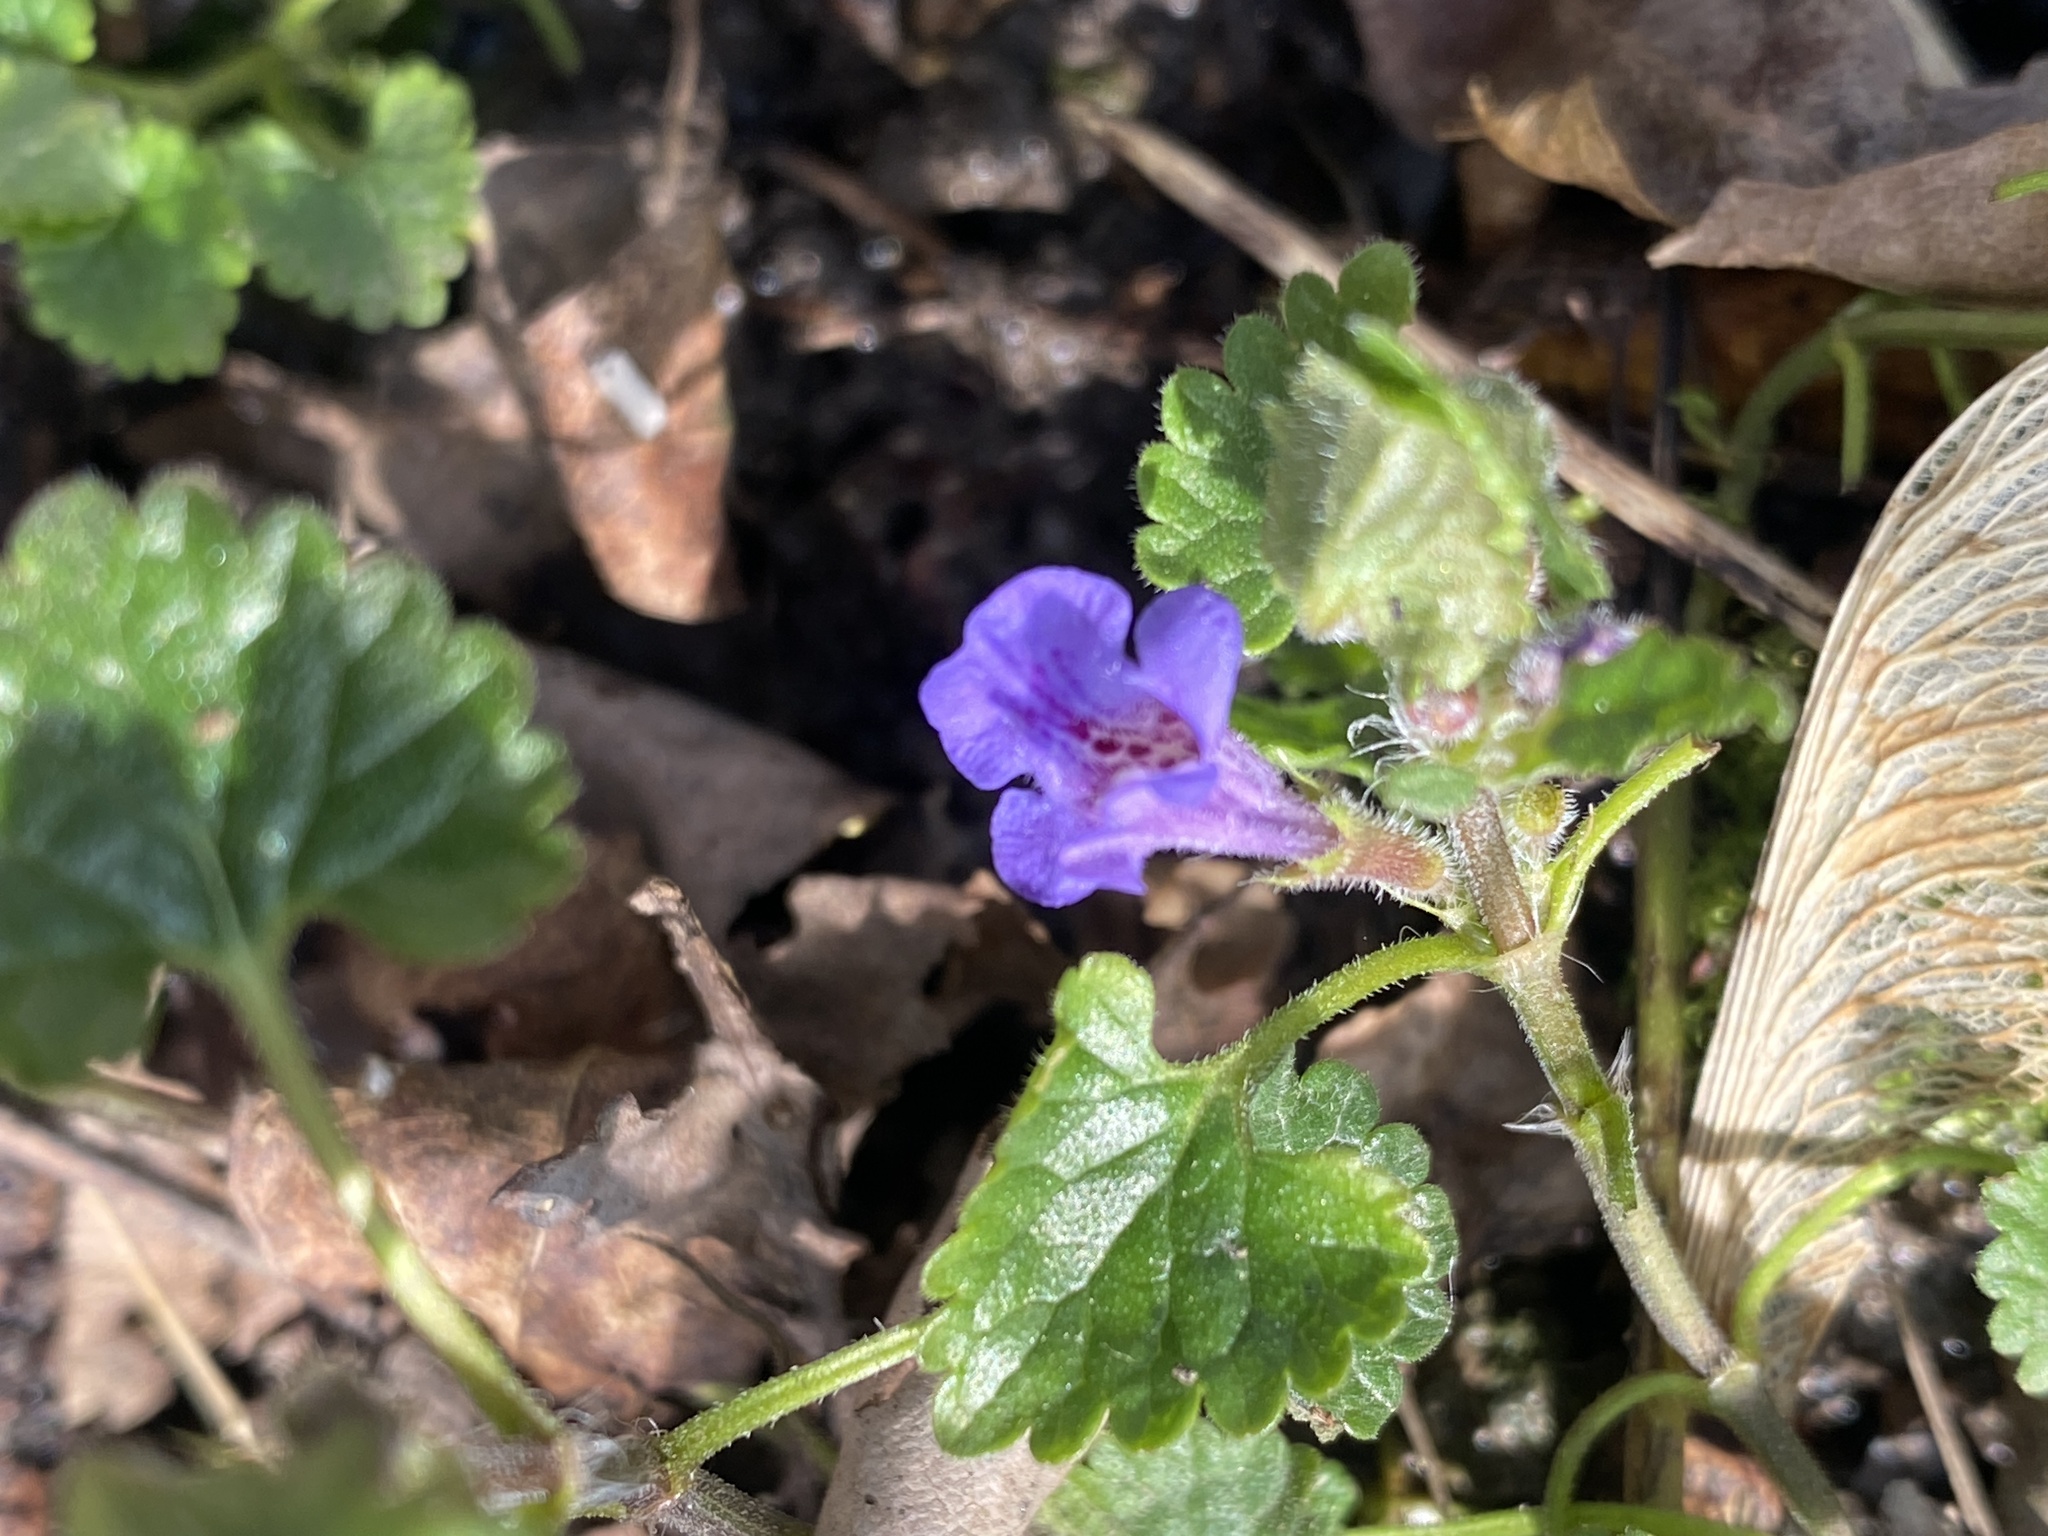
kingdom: Plantae
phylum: Tracheophyta
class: Magnoliopsida
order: Lamiales
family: Lamiaceae
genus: Glechoma
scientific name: Glechoma hederacea
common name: Ground ivy
